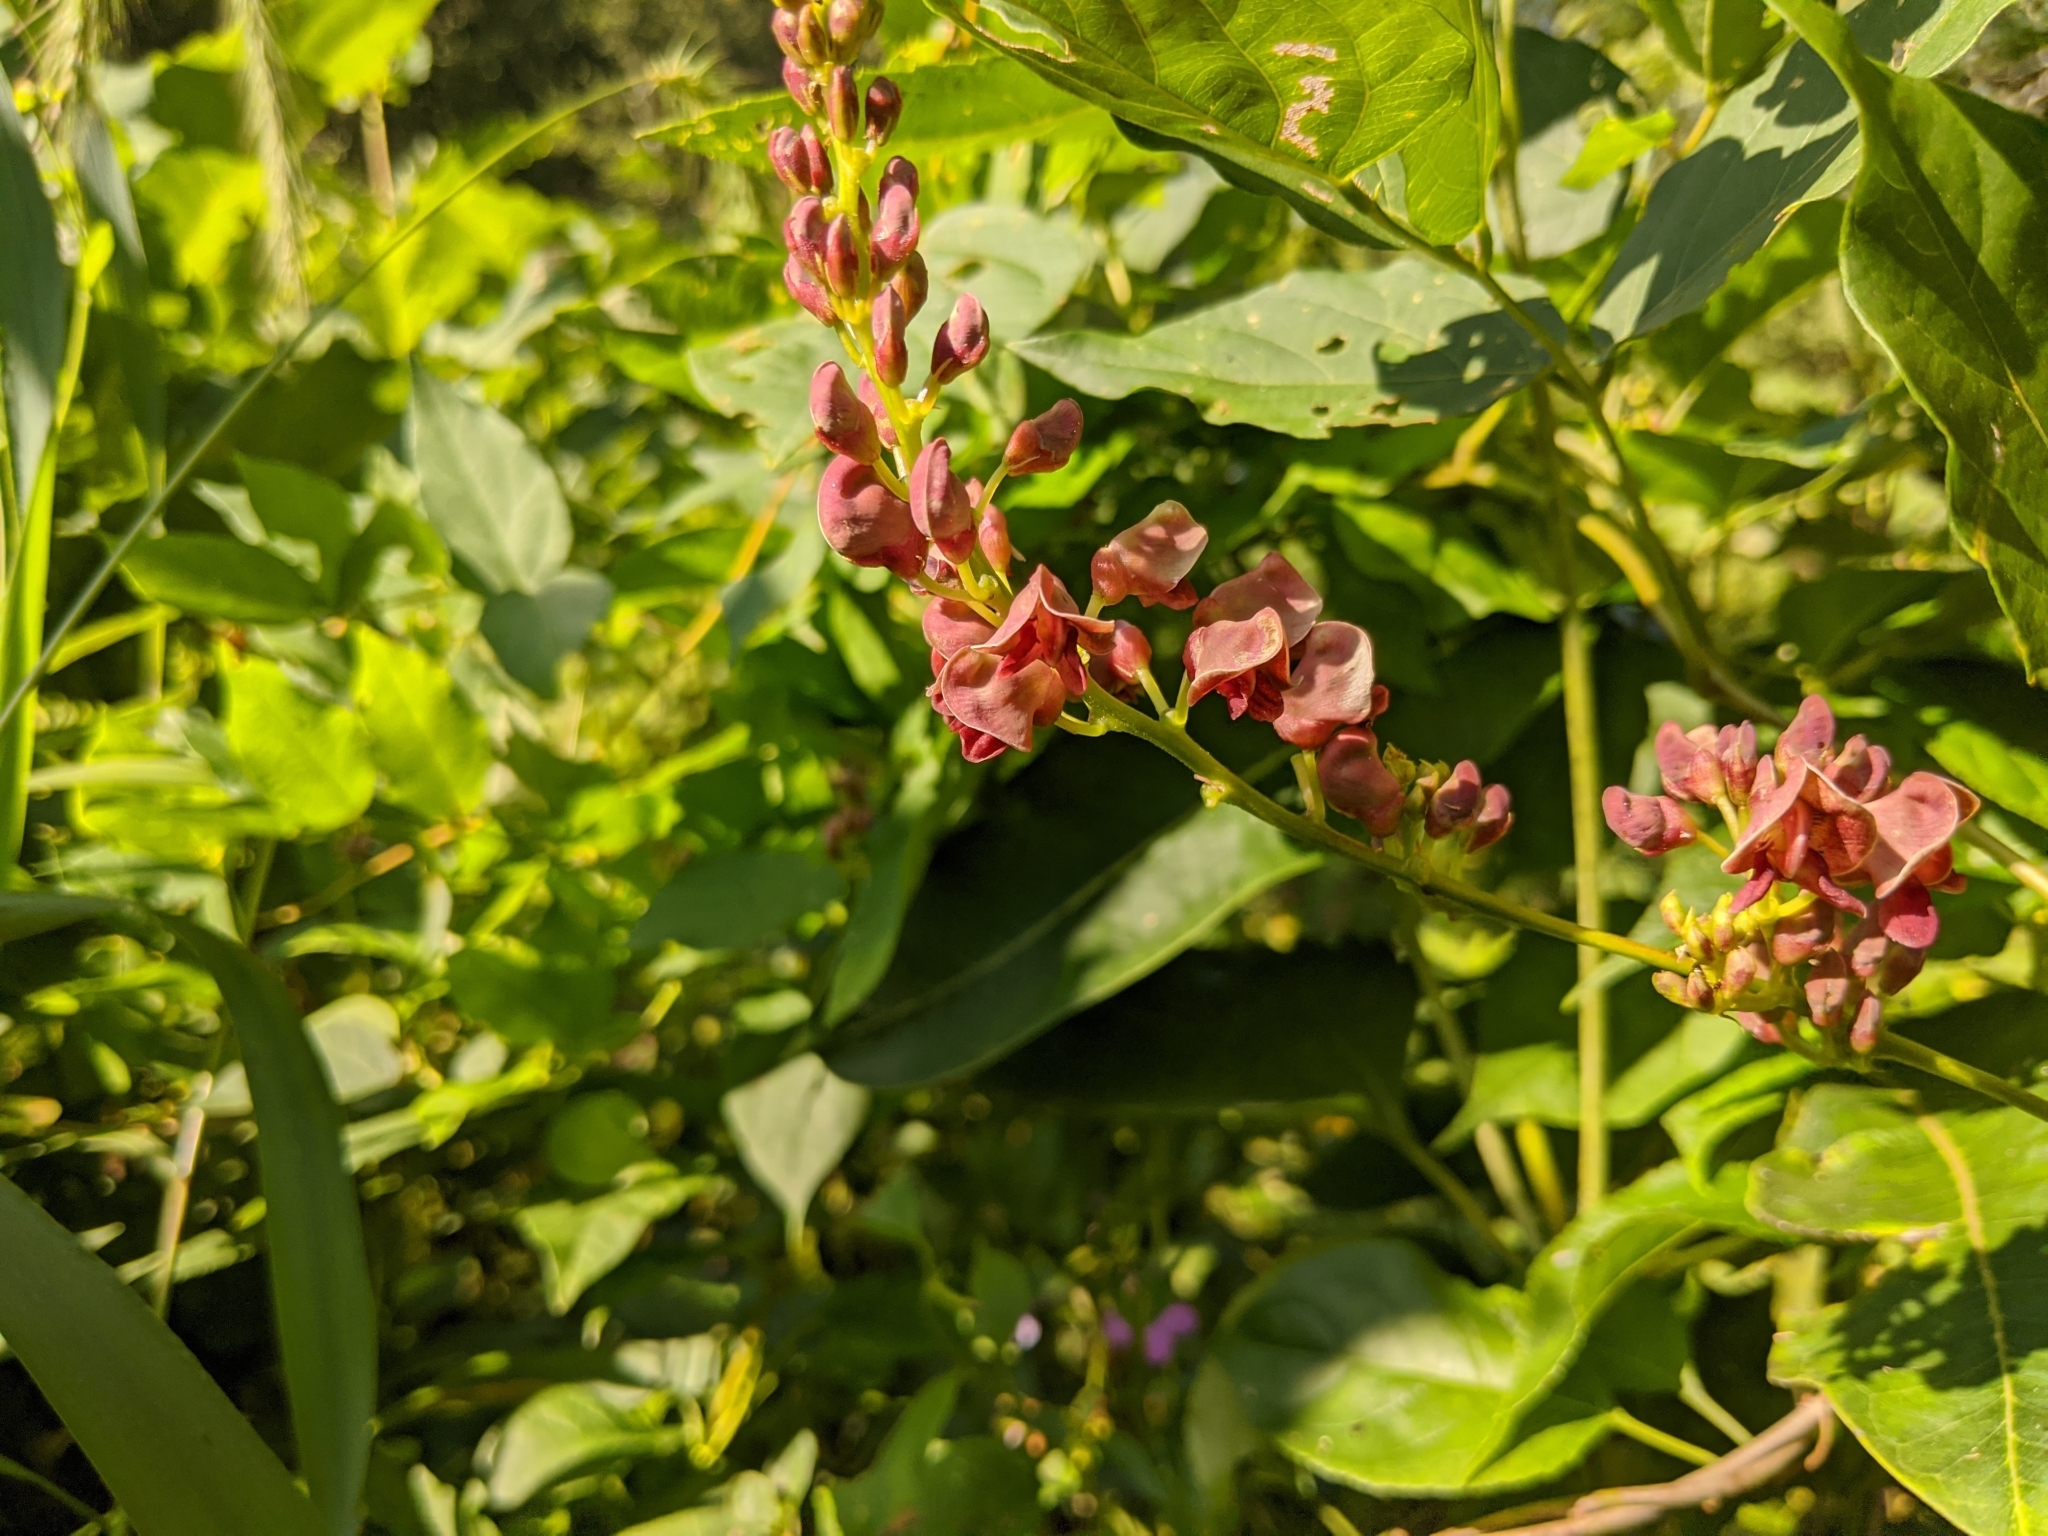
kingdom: Plantae
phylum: Tracheophyta
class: Magnoliopsida
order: Fabales
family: Fabaceae
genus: Apios
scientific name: Apios americana
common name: American potato-bean
